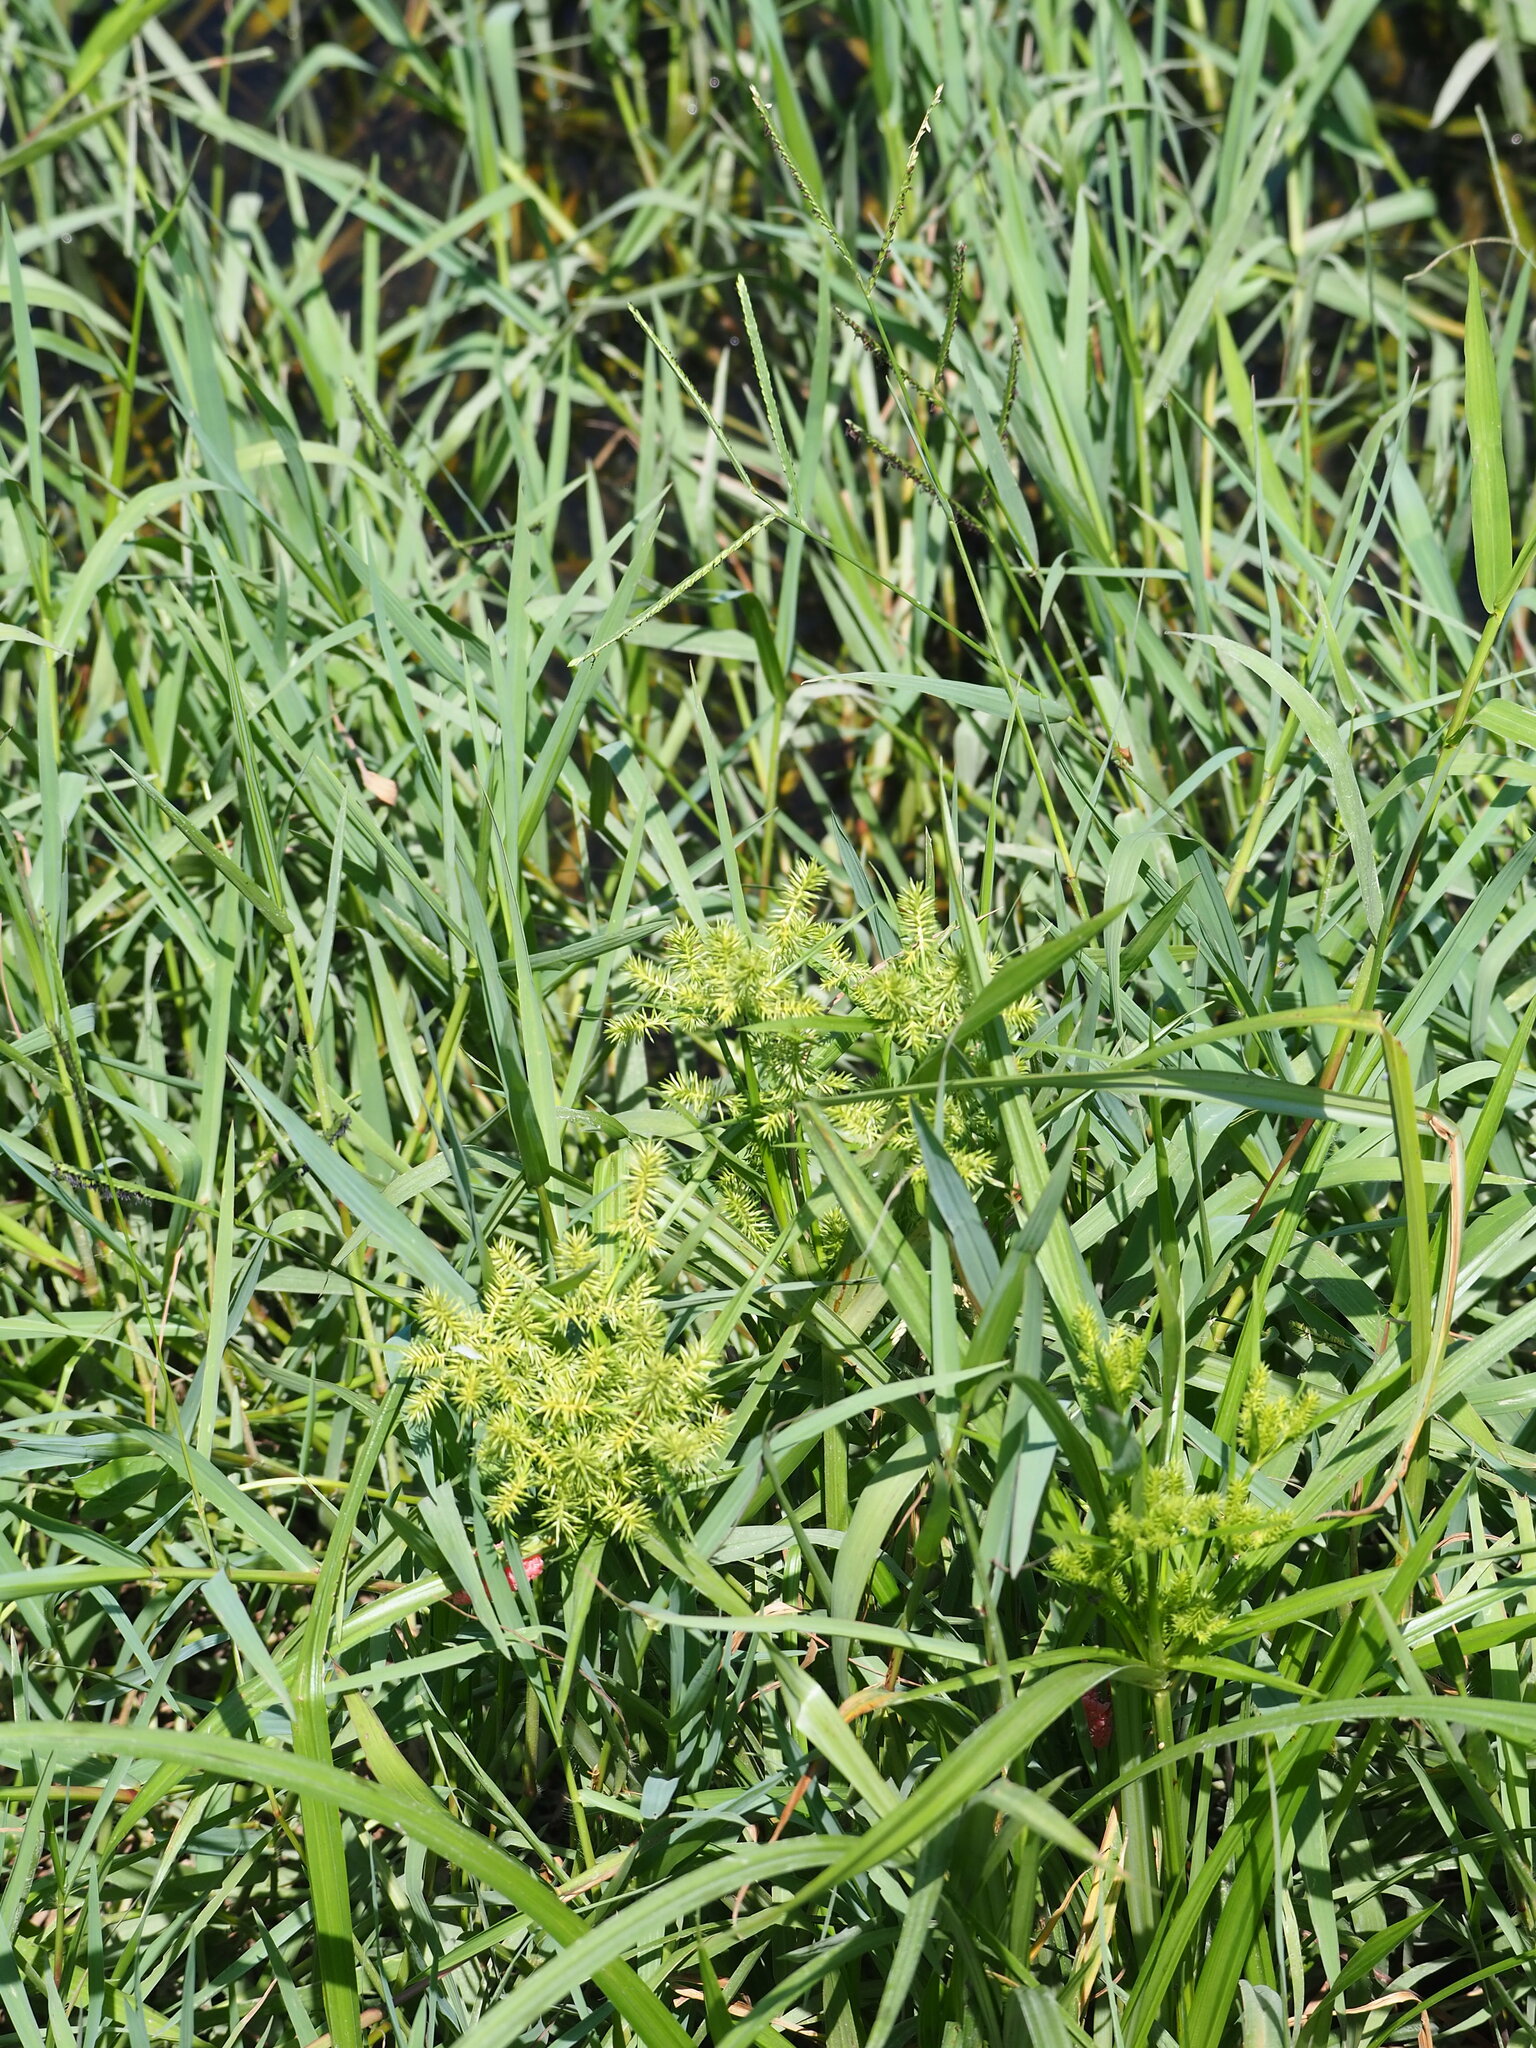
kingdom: Plantae
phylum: Tracheophyta
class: Liliopsida
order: Poales
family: Cyperaceae
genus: Cyperus
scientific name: Cyperus odoratus
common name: Fragrant flatsedge
